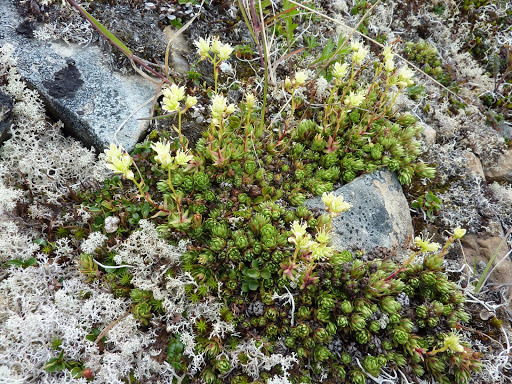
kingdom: Plantae
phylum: Tracheophyta
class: Magnoliopsida
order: Saxifragales
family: Saxifragaceae
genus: Saxifraga
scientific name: Saxifraga bronchialis
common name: Matted saxifrage
